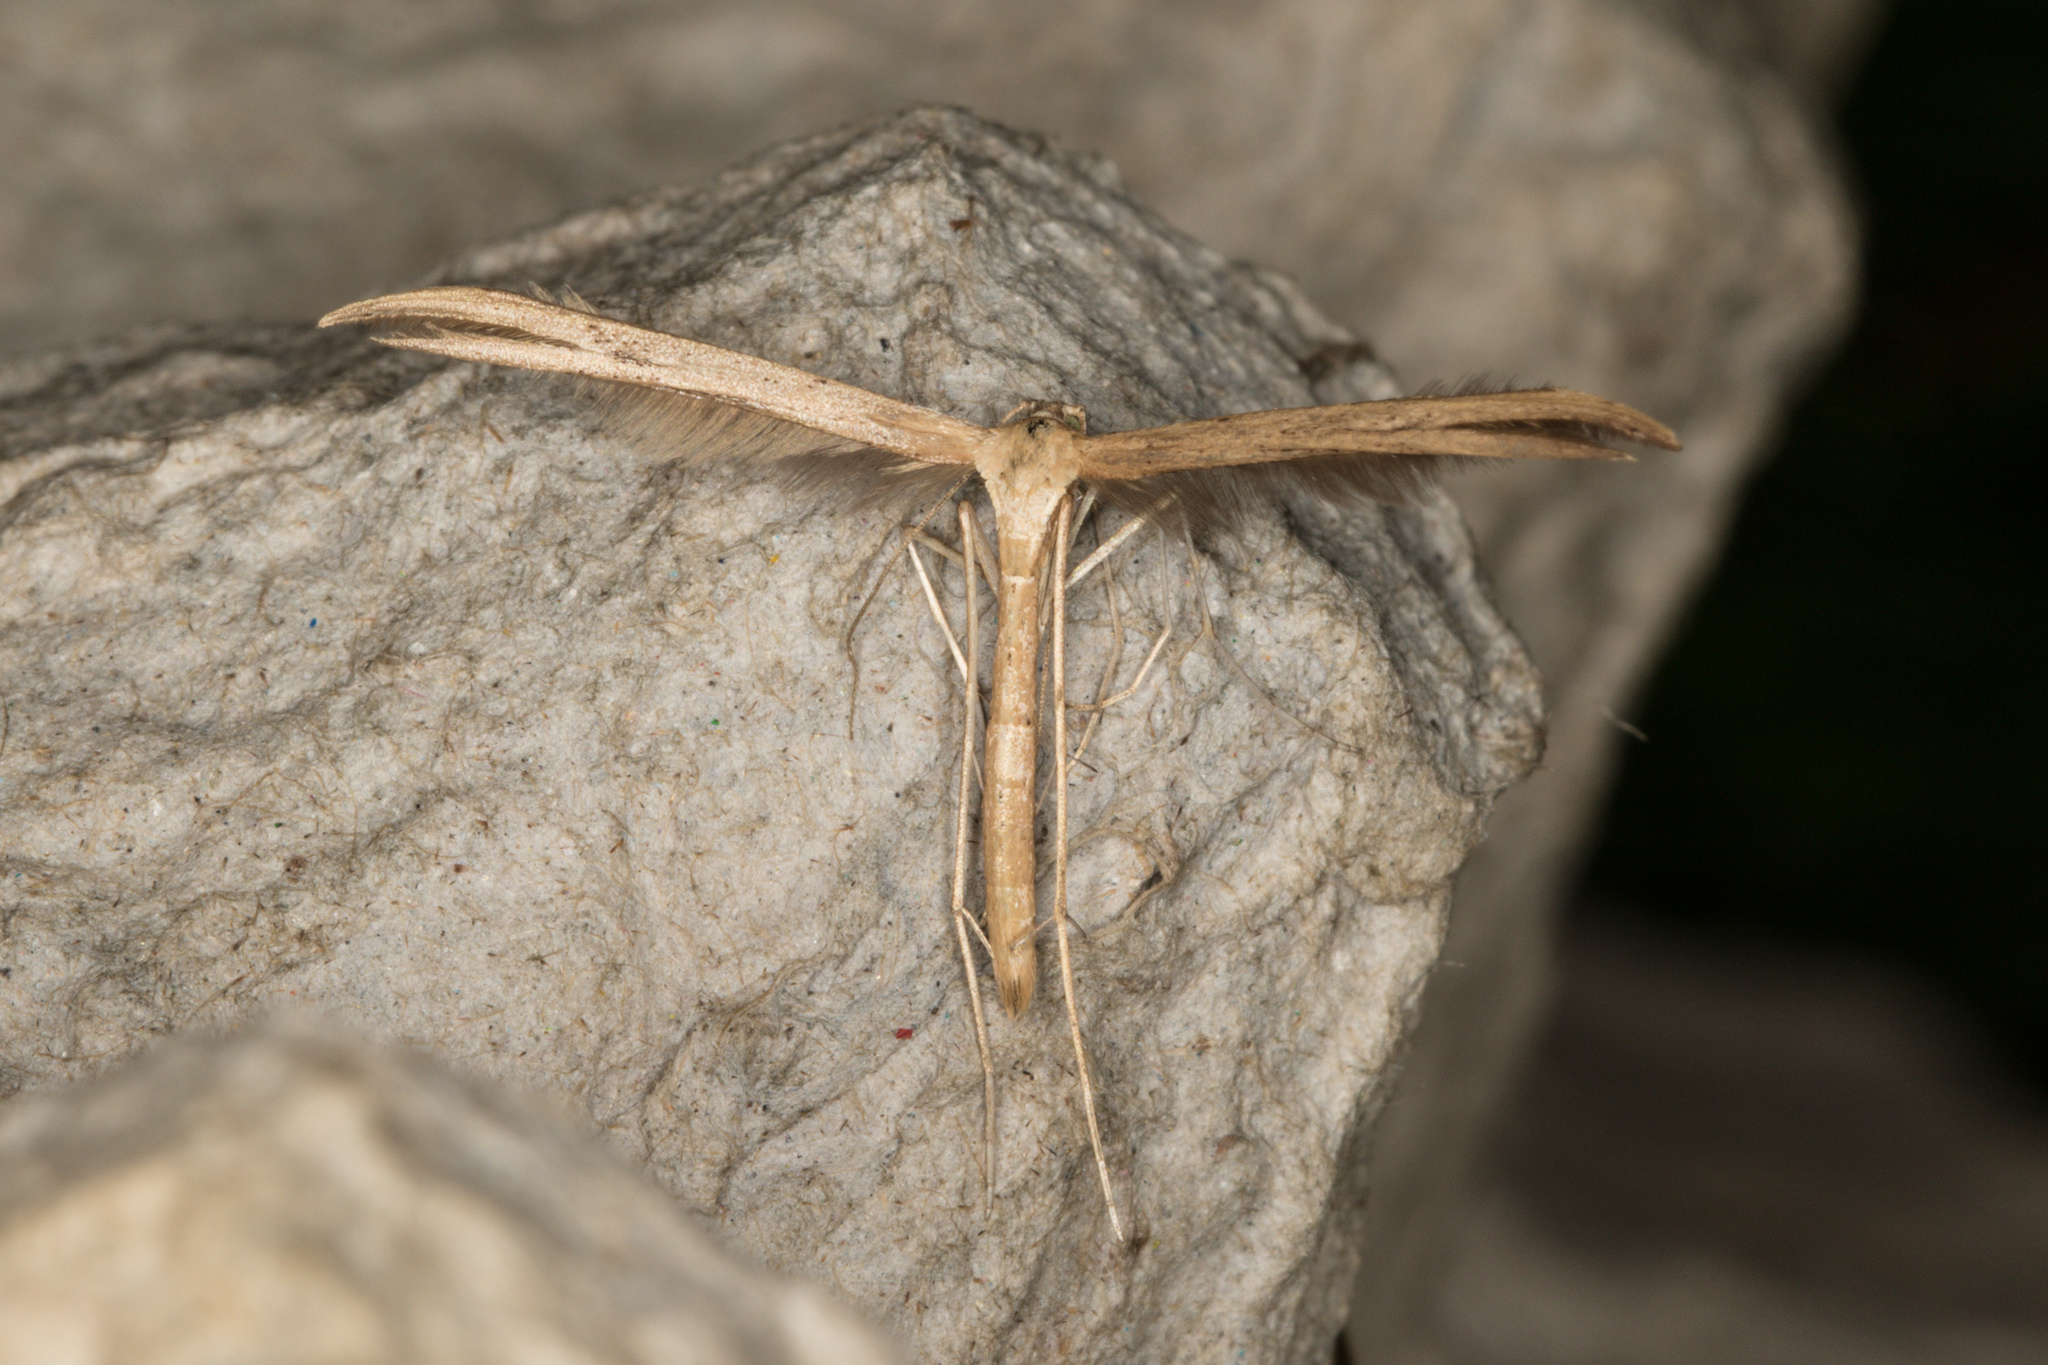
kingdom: Animalia
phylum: Arthropoda
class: Insecta
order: Lepidoptera
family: Pterophoridae
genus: Emmelina
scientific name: Emmelina monodactyla
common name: Common plume
